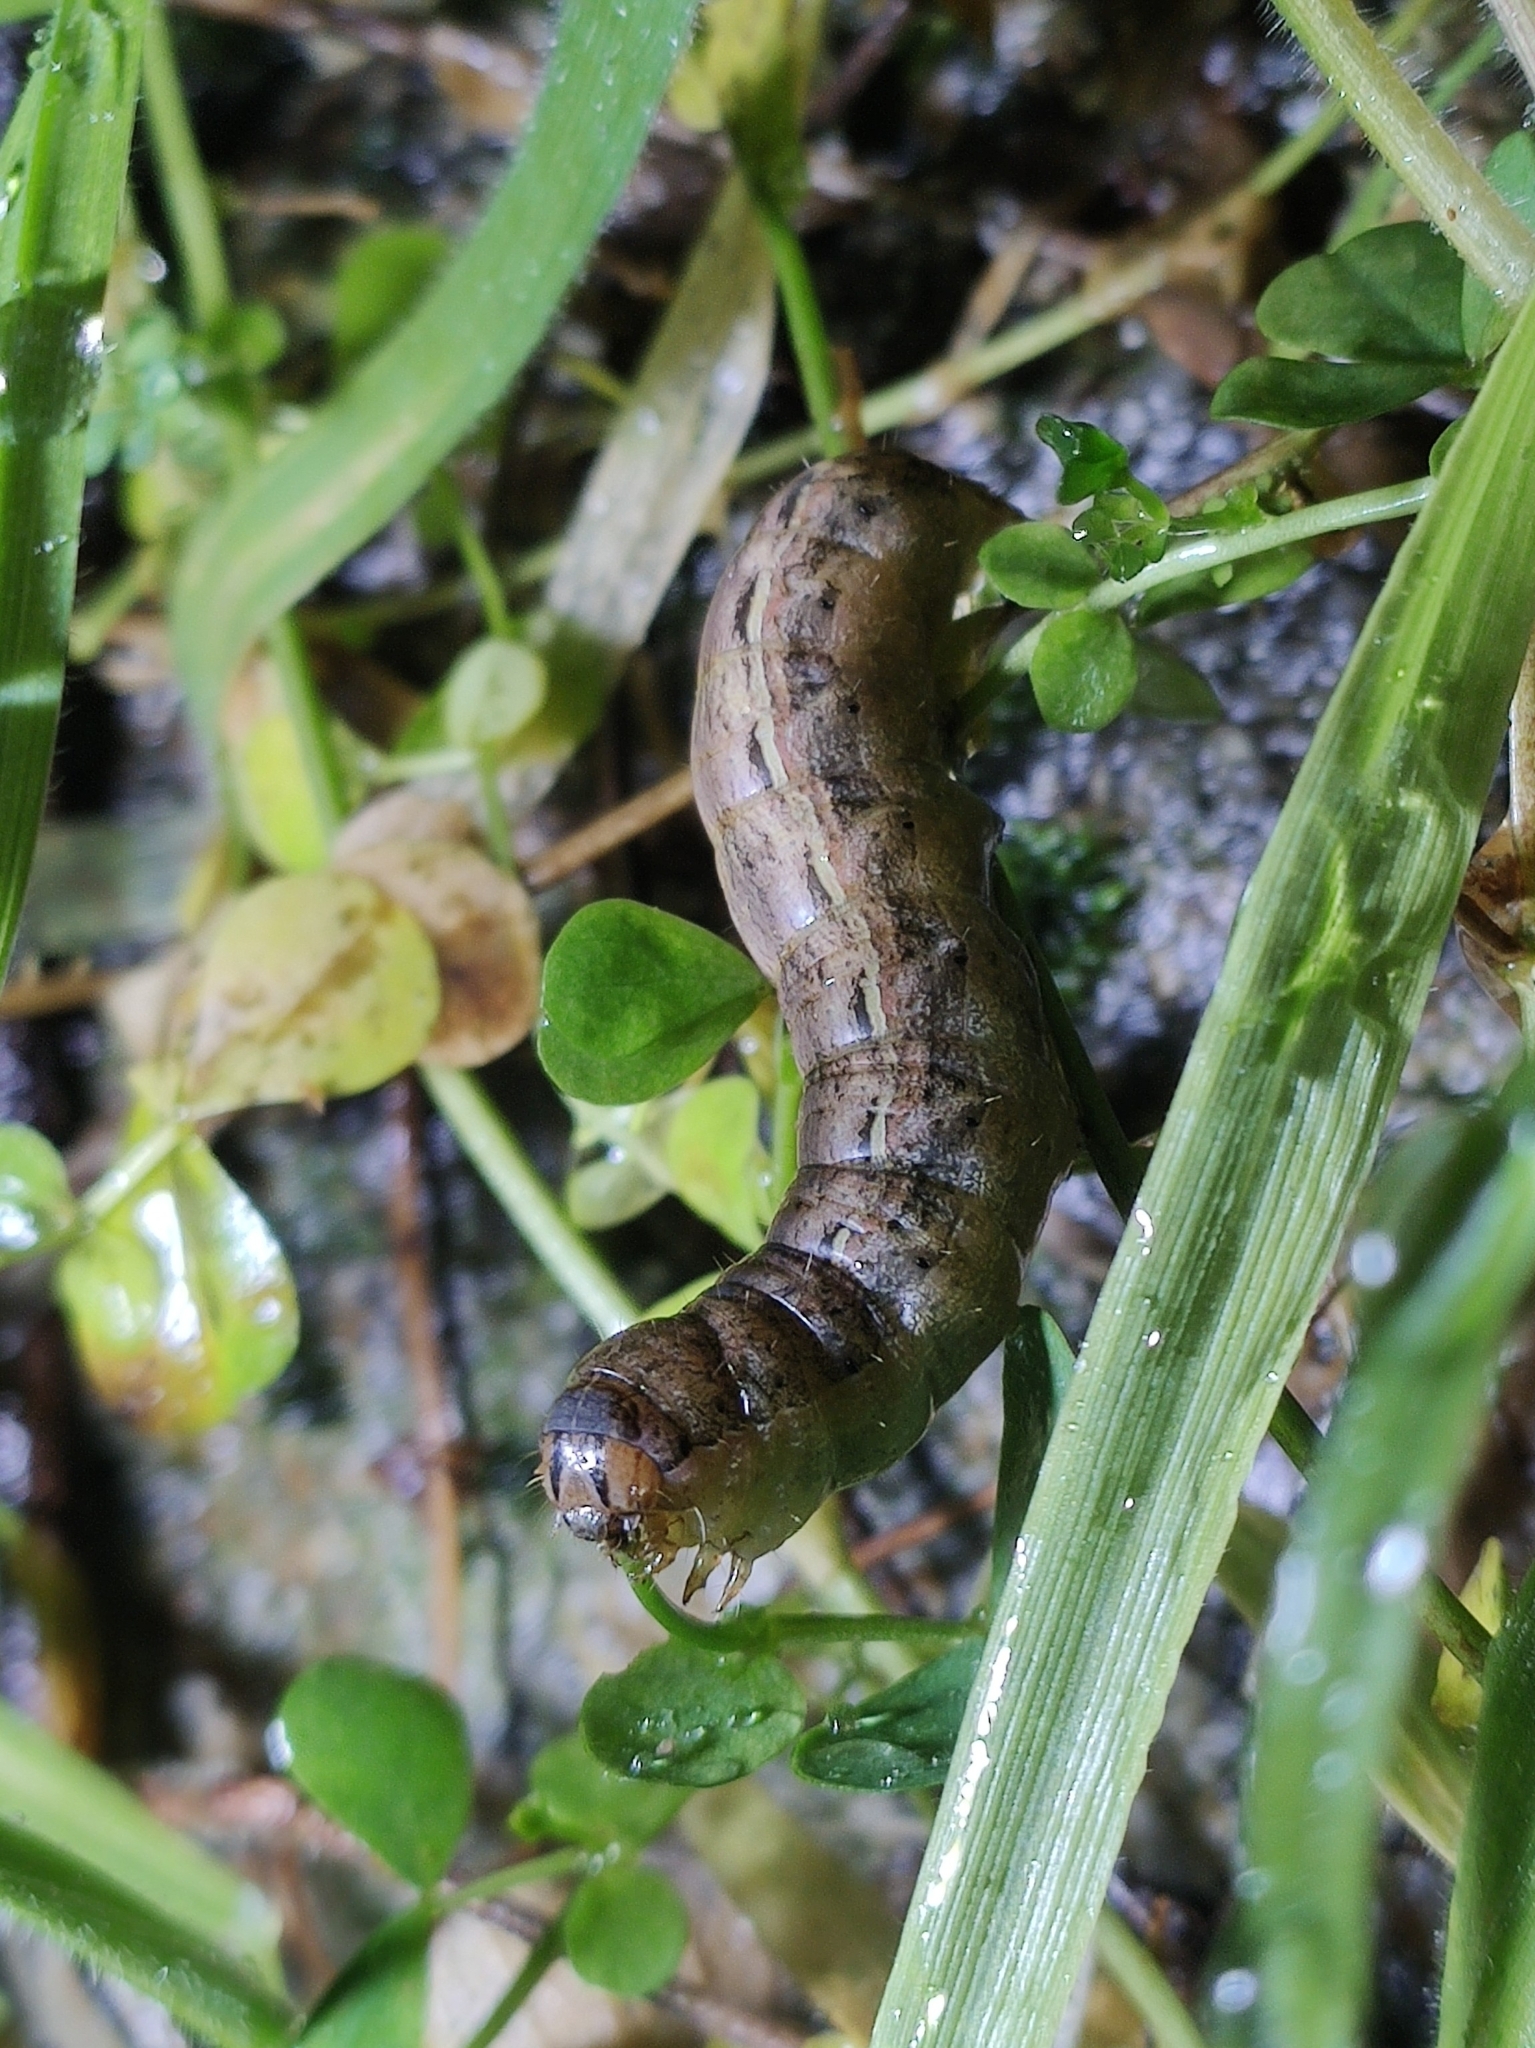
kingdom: Animalia
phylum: Arthropoda
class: Insecta
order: Lepidoptera
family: Noctuidae
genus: Noctua
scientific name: Noctua pronuba
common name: Large yellow underwing
